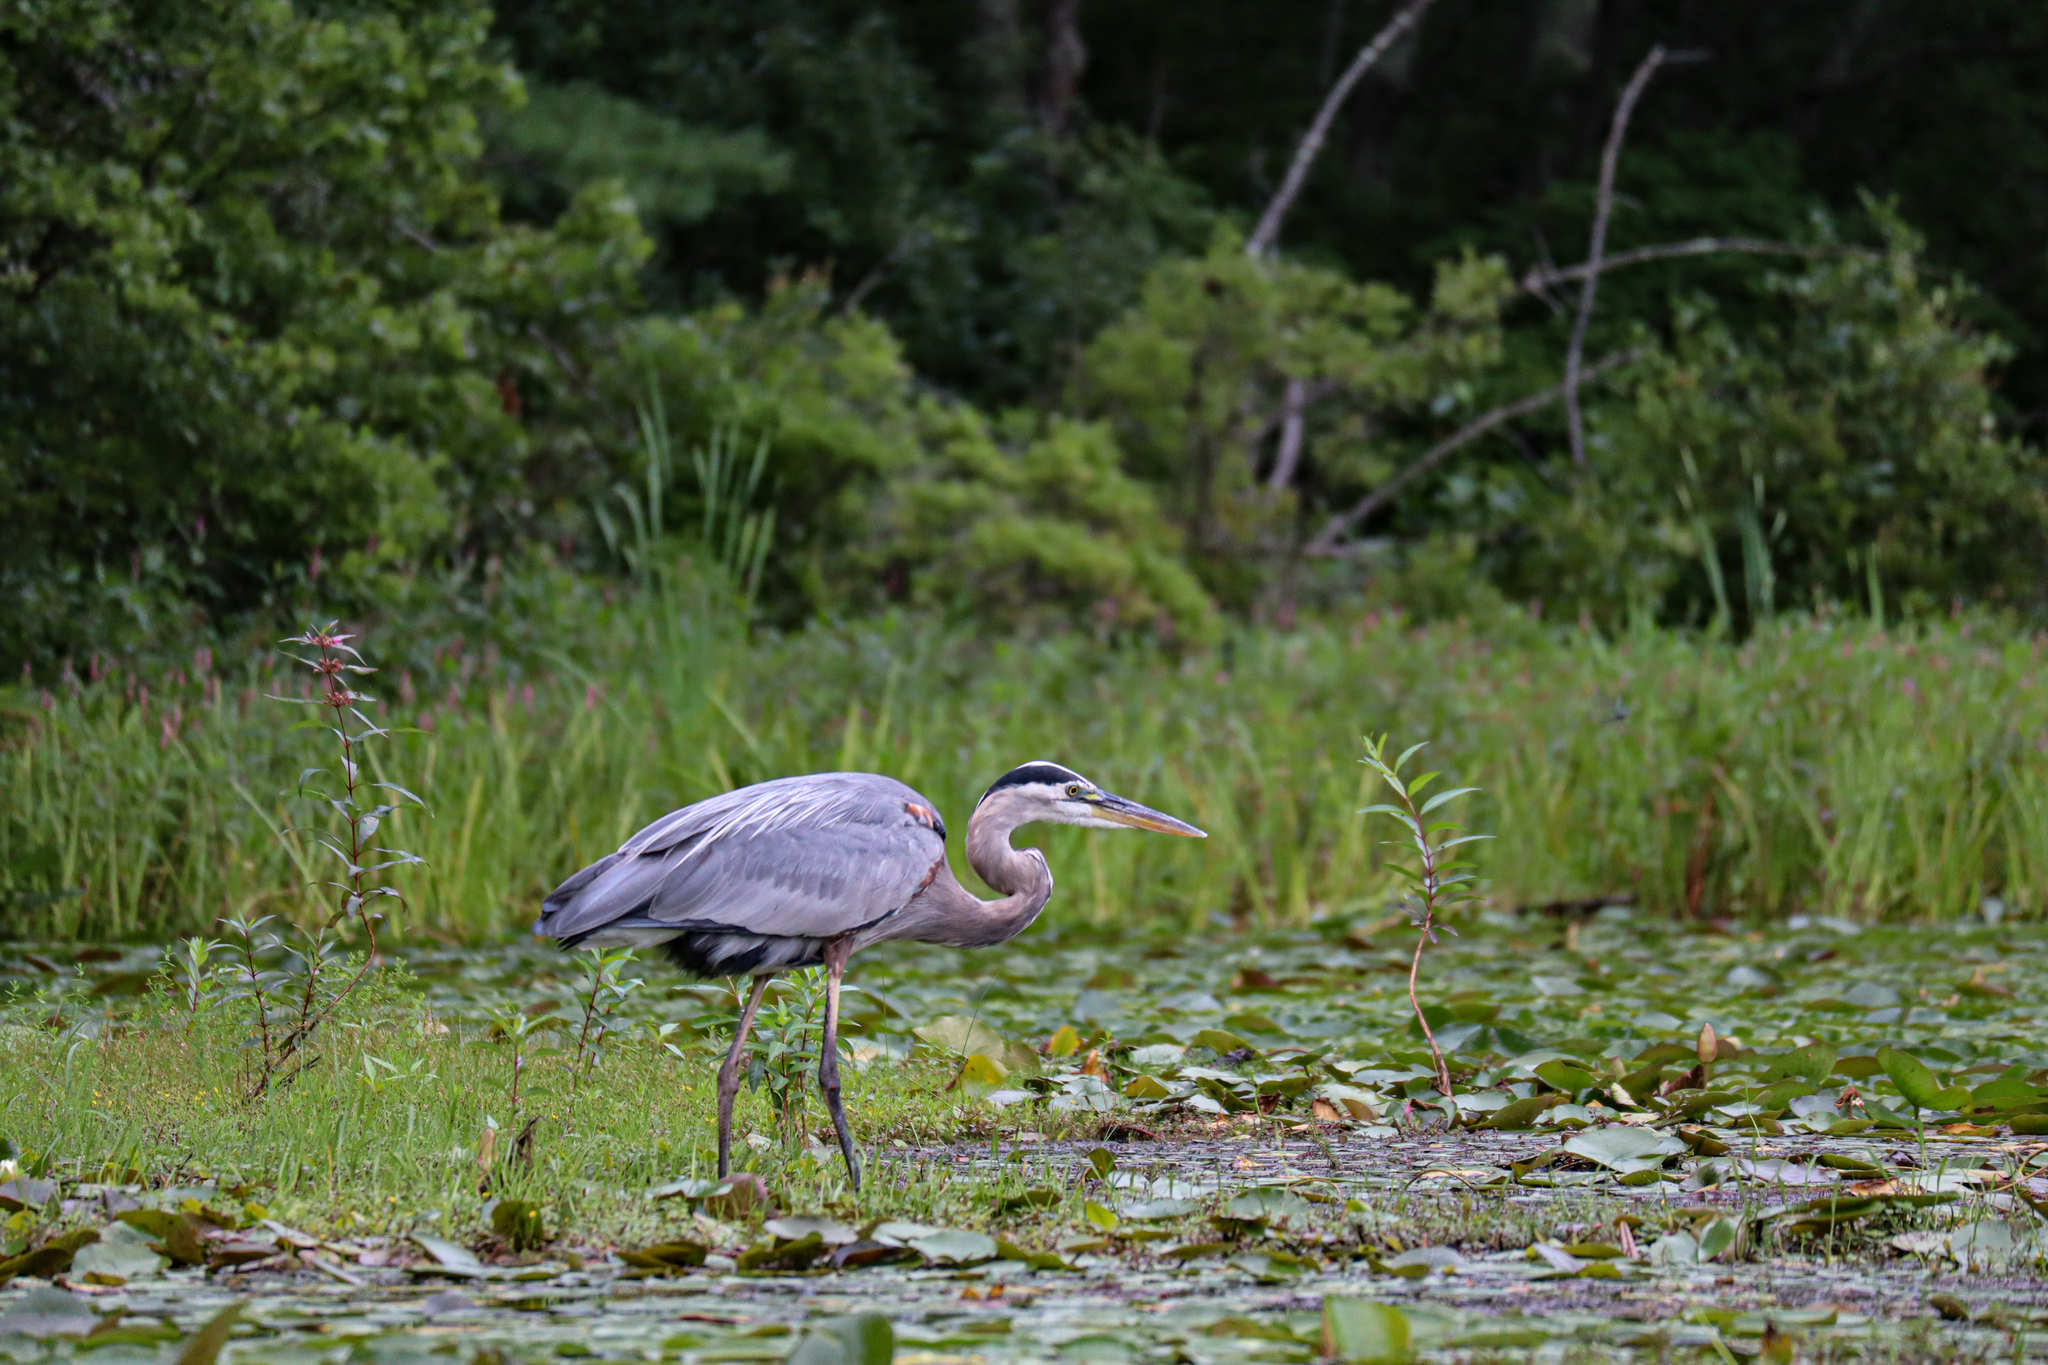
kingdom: Animalia
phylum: Chordata
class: Aves
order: Pelecaniformes
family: Ardeidae
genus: Ardea
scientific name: Ardea herodias
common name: Great blue heron
